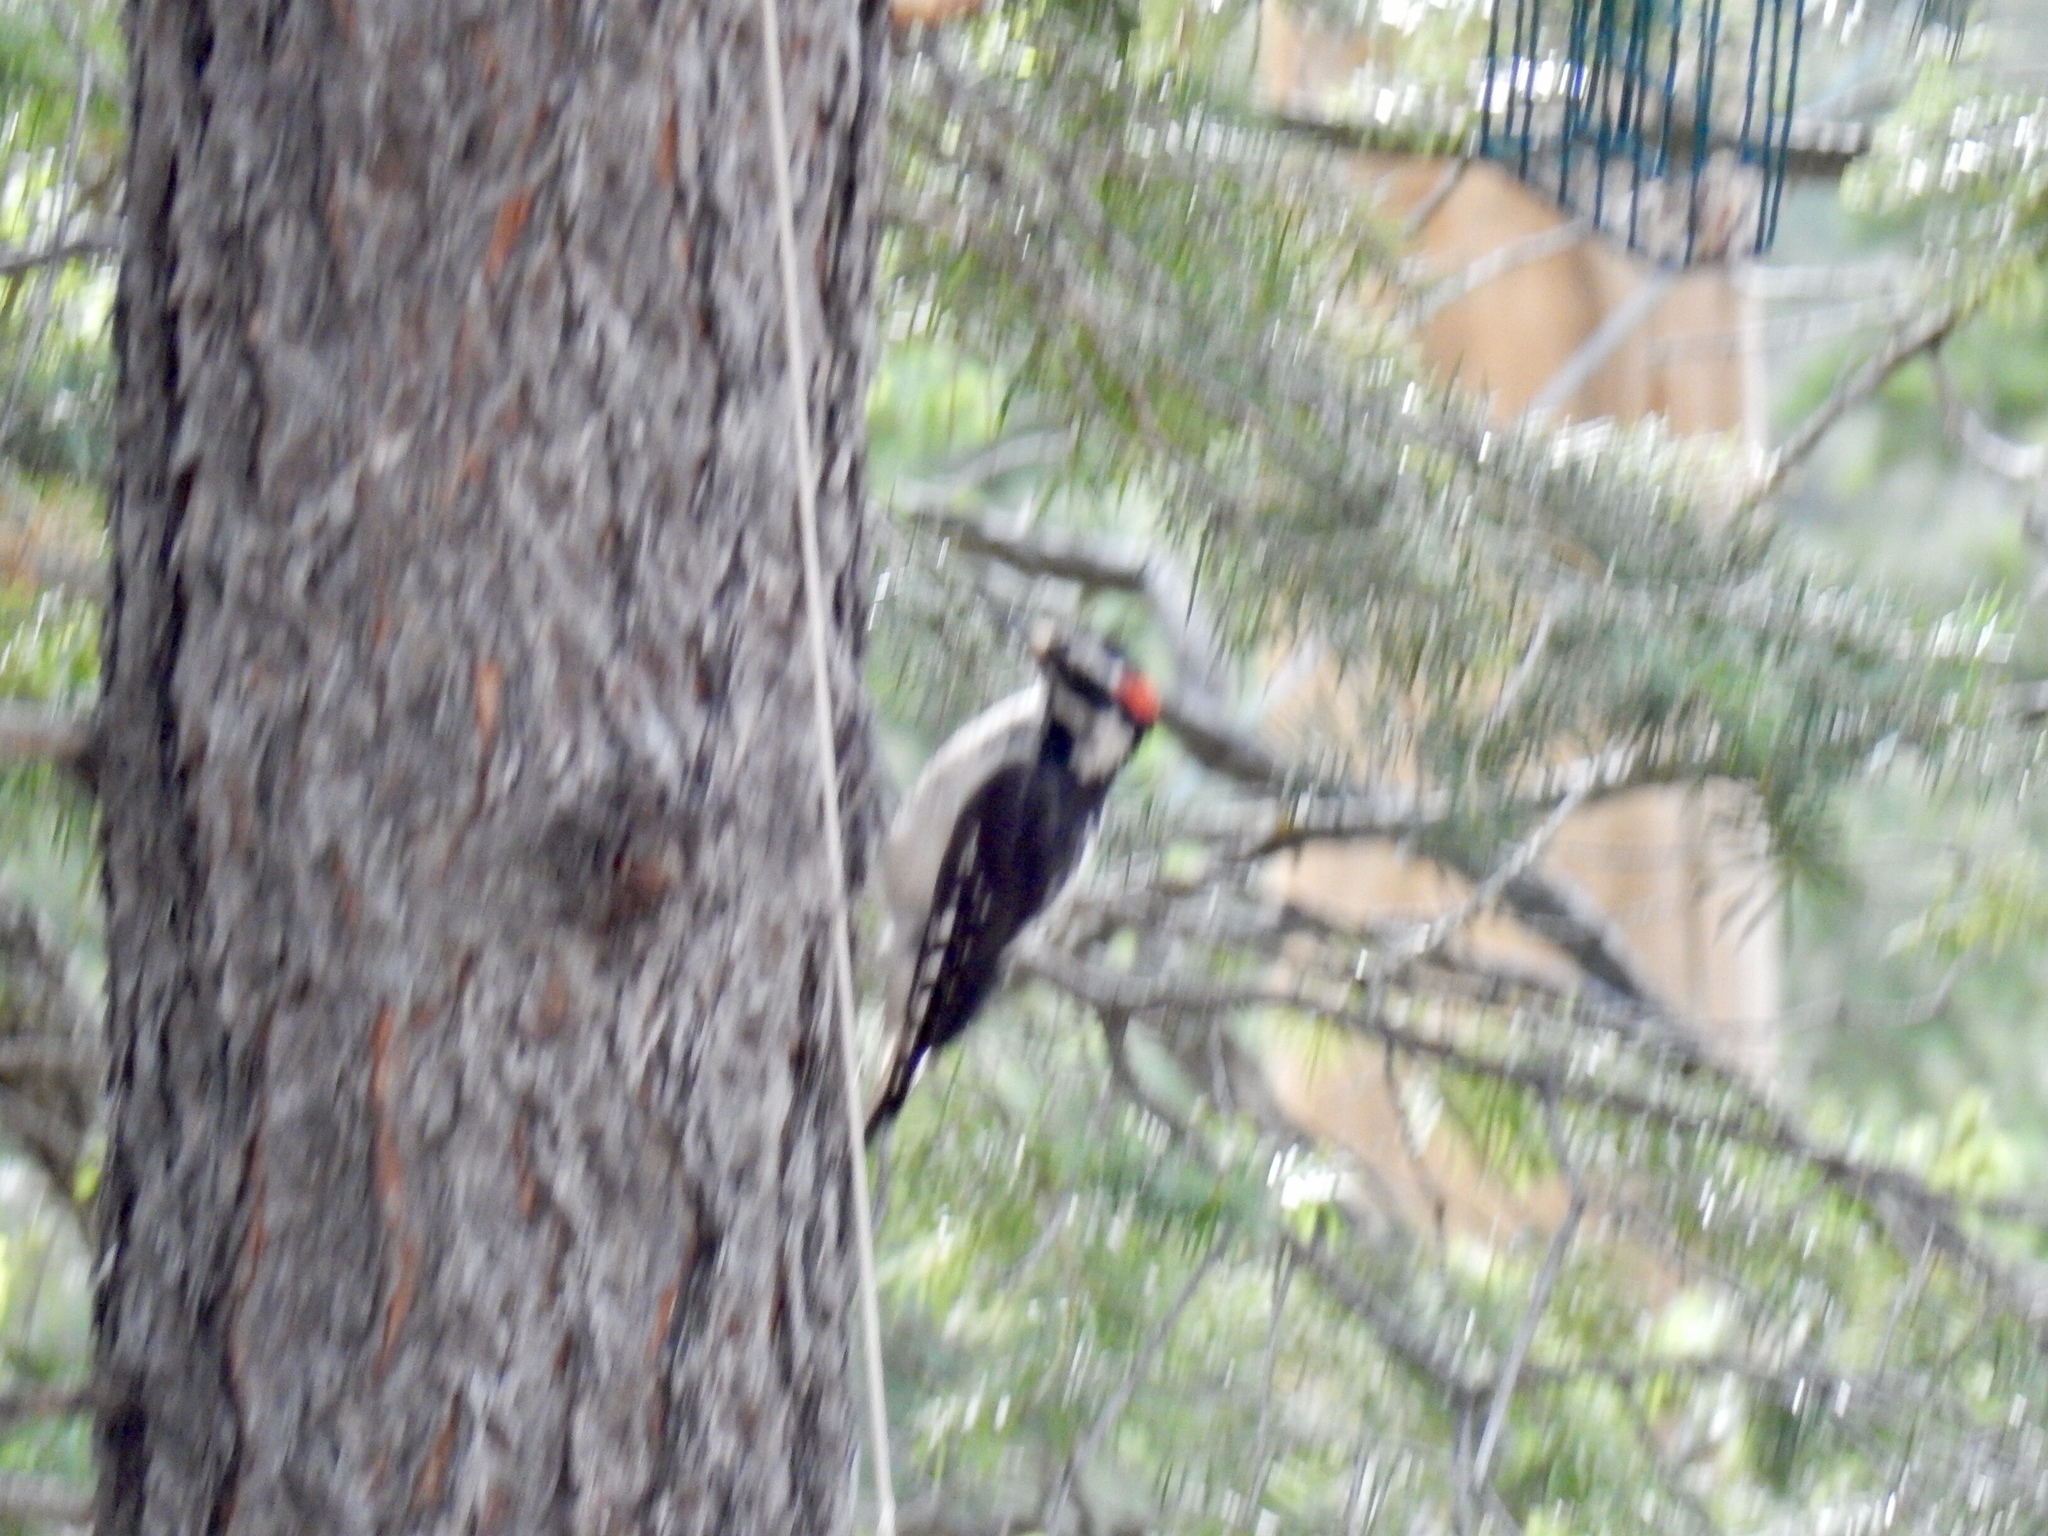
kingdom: Animalia
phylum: Chordata
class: Aves
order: Piciformes
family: Picidae
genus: Leuconotopicus
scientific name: Leuconotopicus villosus
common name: Hairy woodpecker
